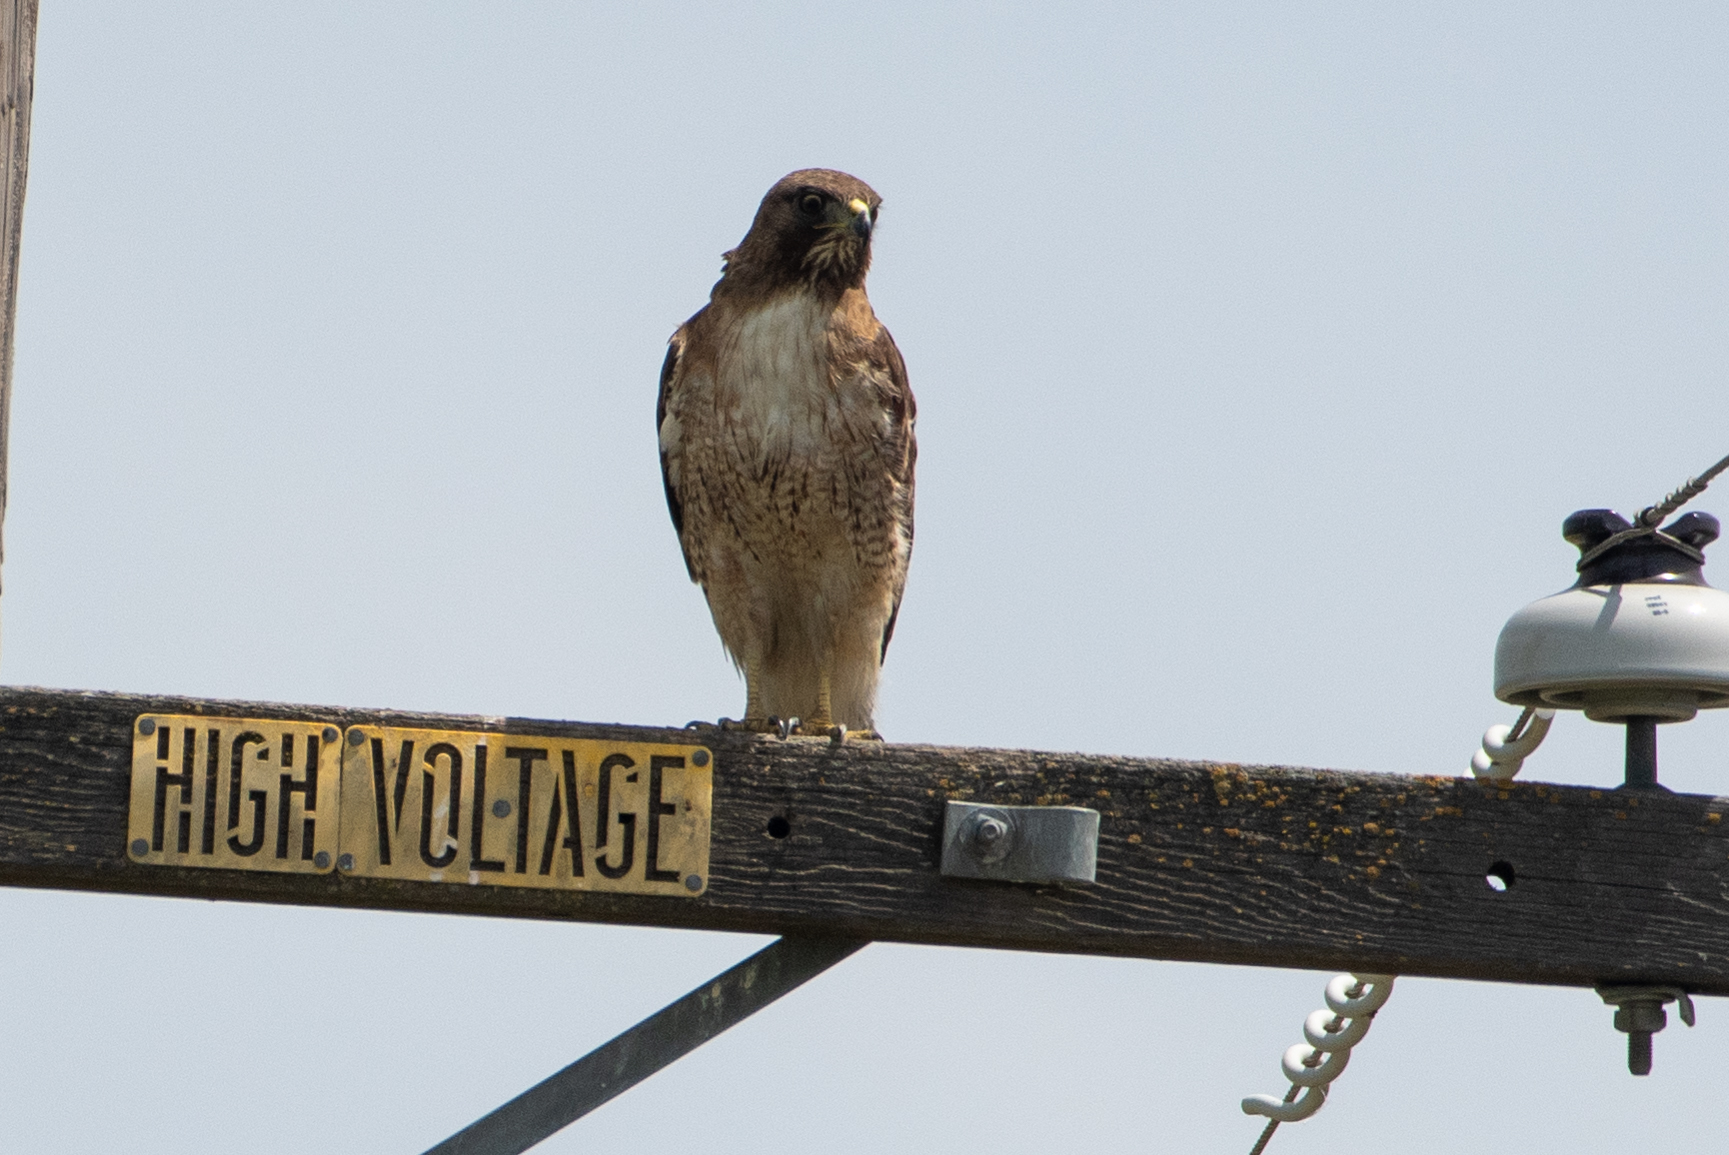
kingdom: Animalia
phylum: Chordata
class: Aves
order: Accipitriformes
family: Accipitridae
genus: Buteo
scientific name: Buteo jamaicensis
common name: Red-tailed hawk
